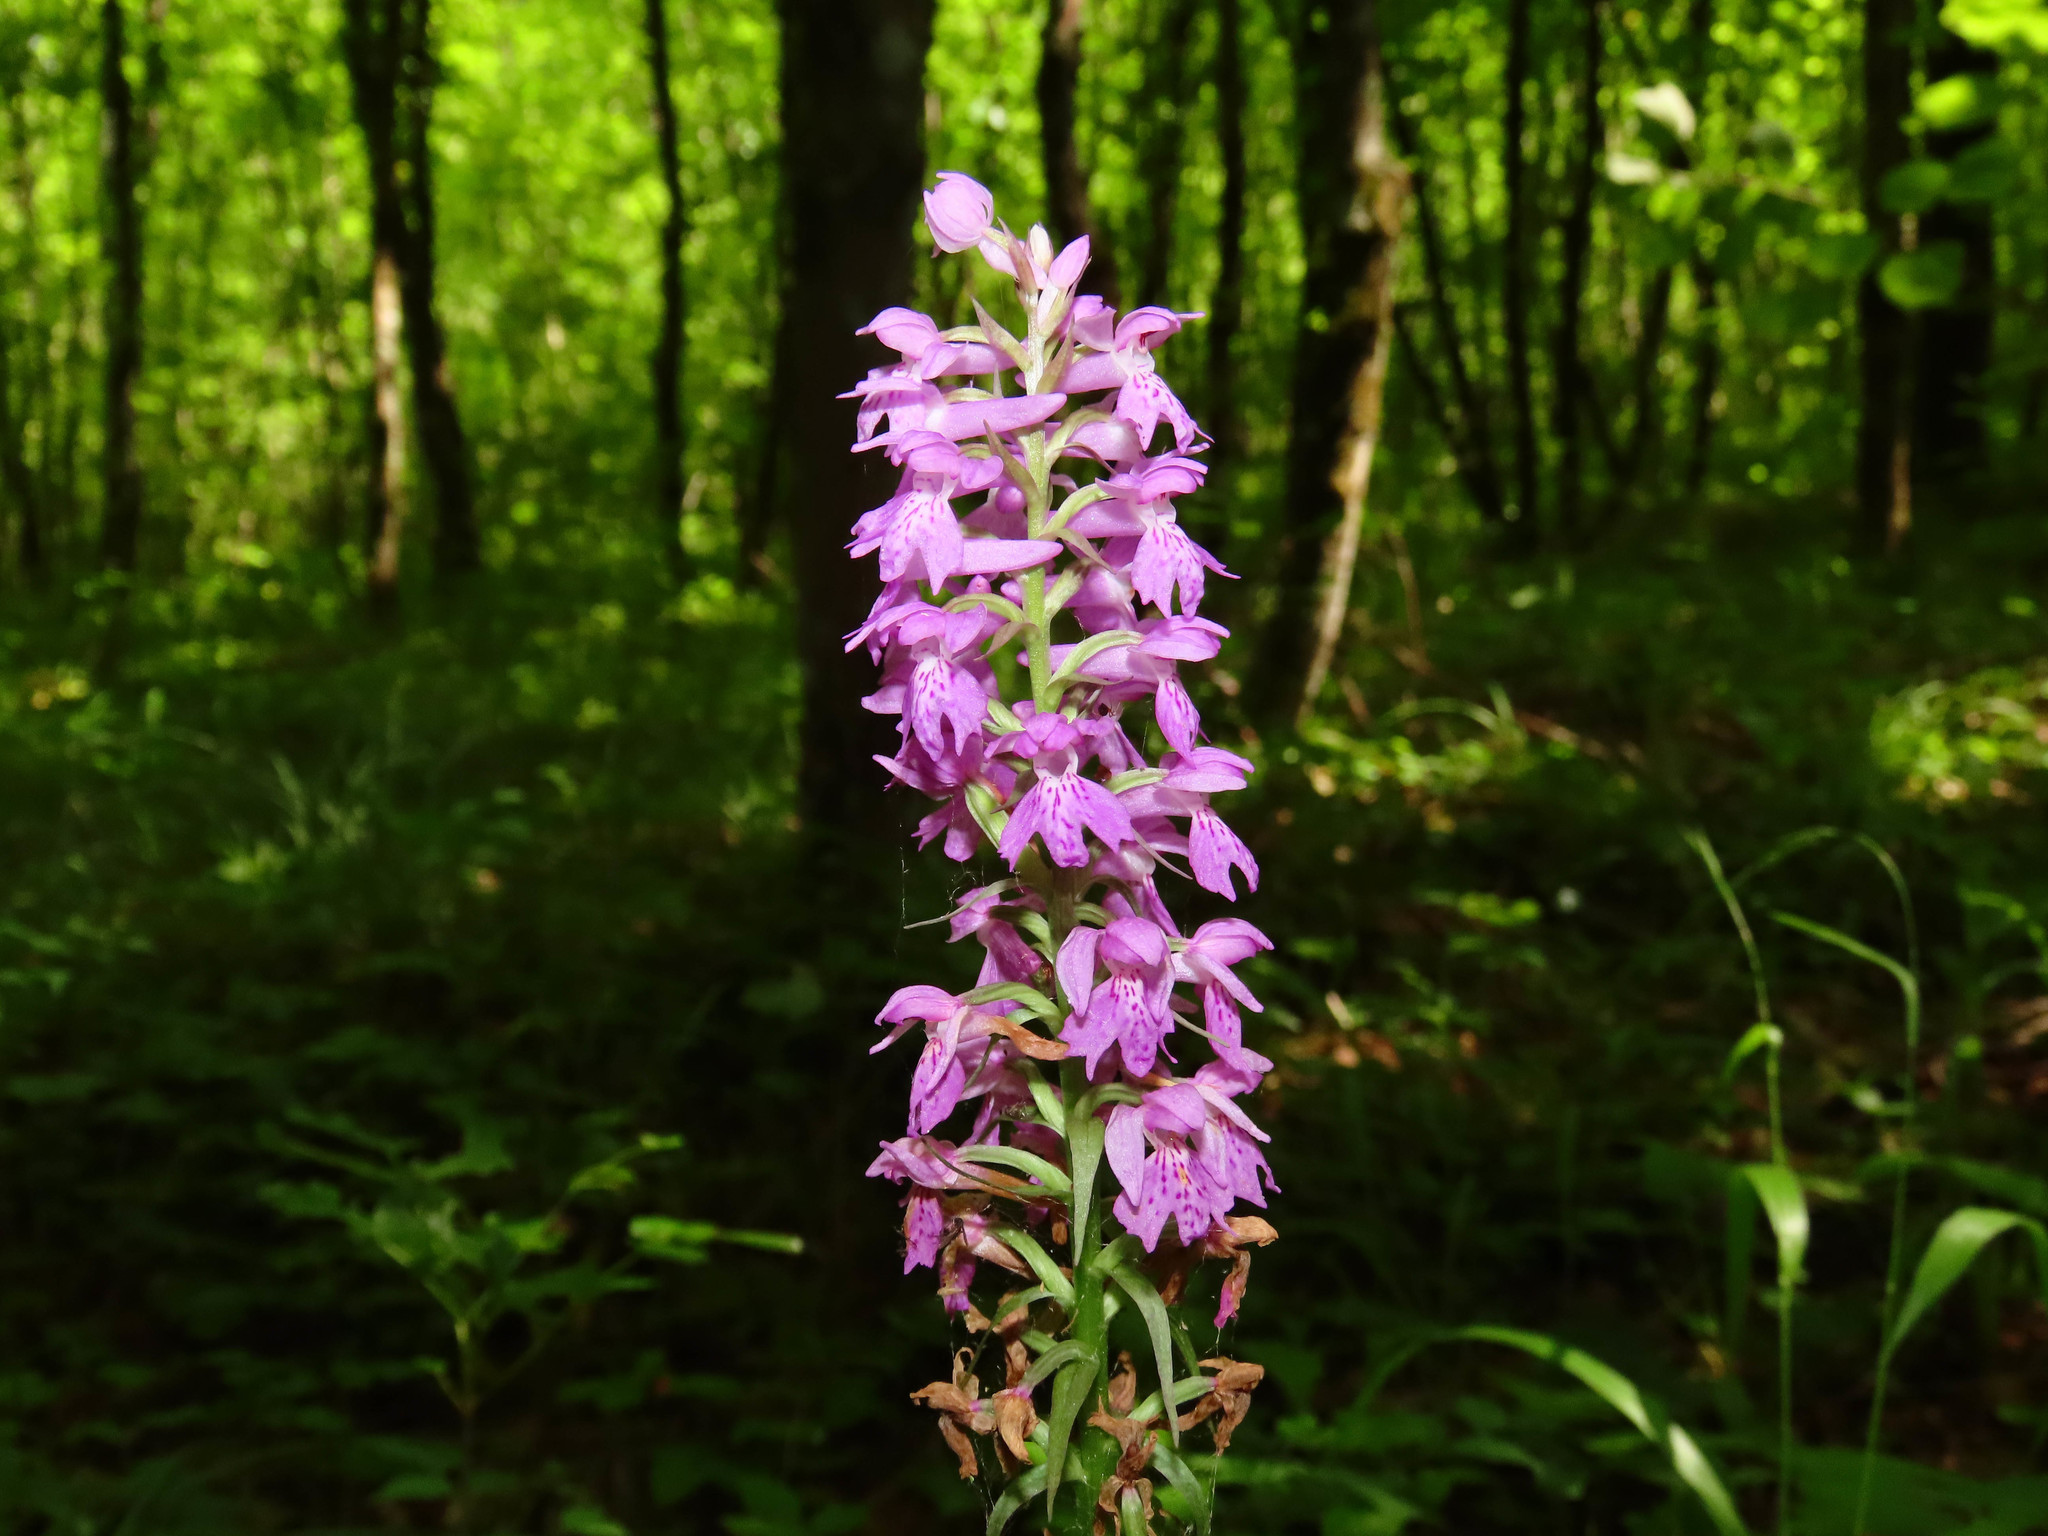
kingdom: Plantae
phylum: Tracheophyta
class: Liliopsida
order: Asparagales
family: Orchidaceae
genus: Dactylorhiza
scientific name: Dactylorhiza maculata
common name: Heath spotted-orchid
